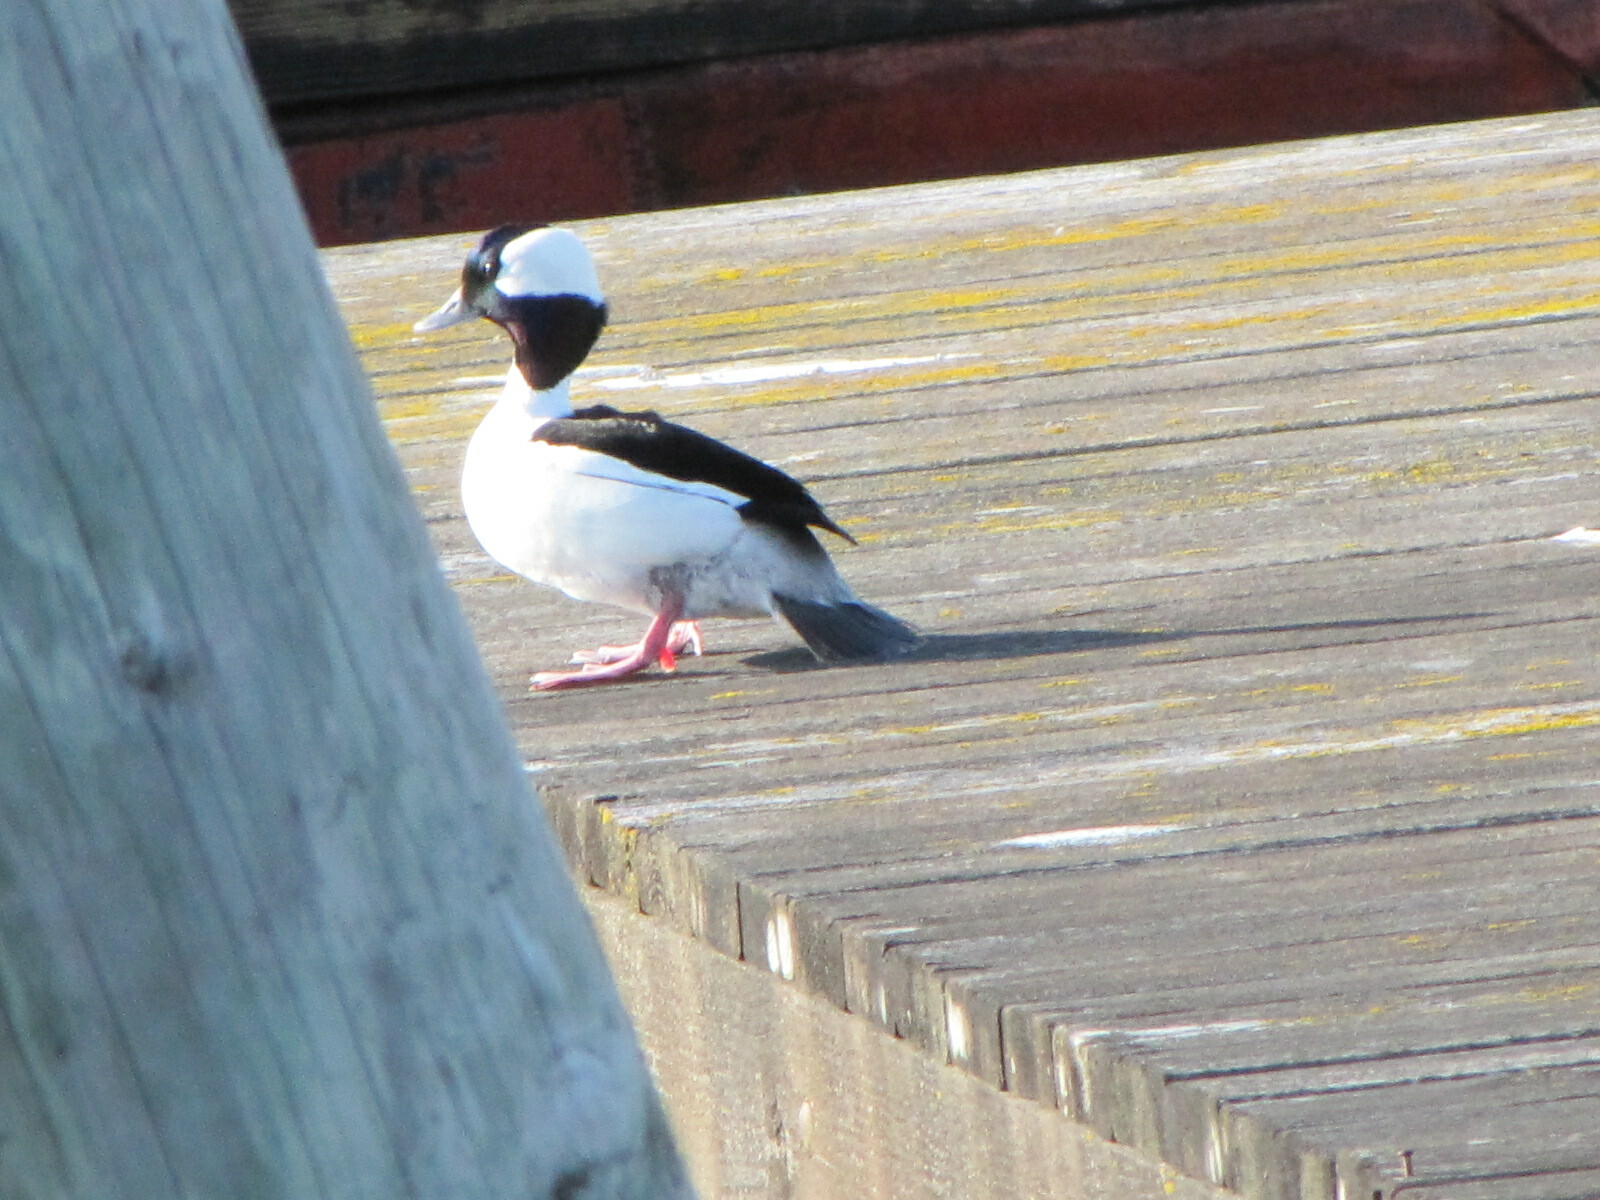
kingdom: Animalia
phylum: Chordata
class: Aves
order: Anseriformes
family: Anatidae
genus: Bucephala
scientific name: Bucephala albeola
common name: Bufflehead
